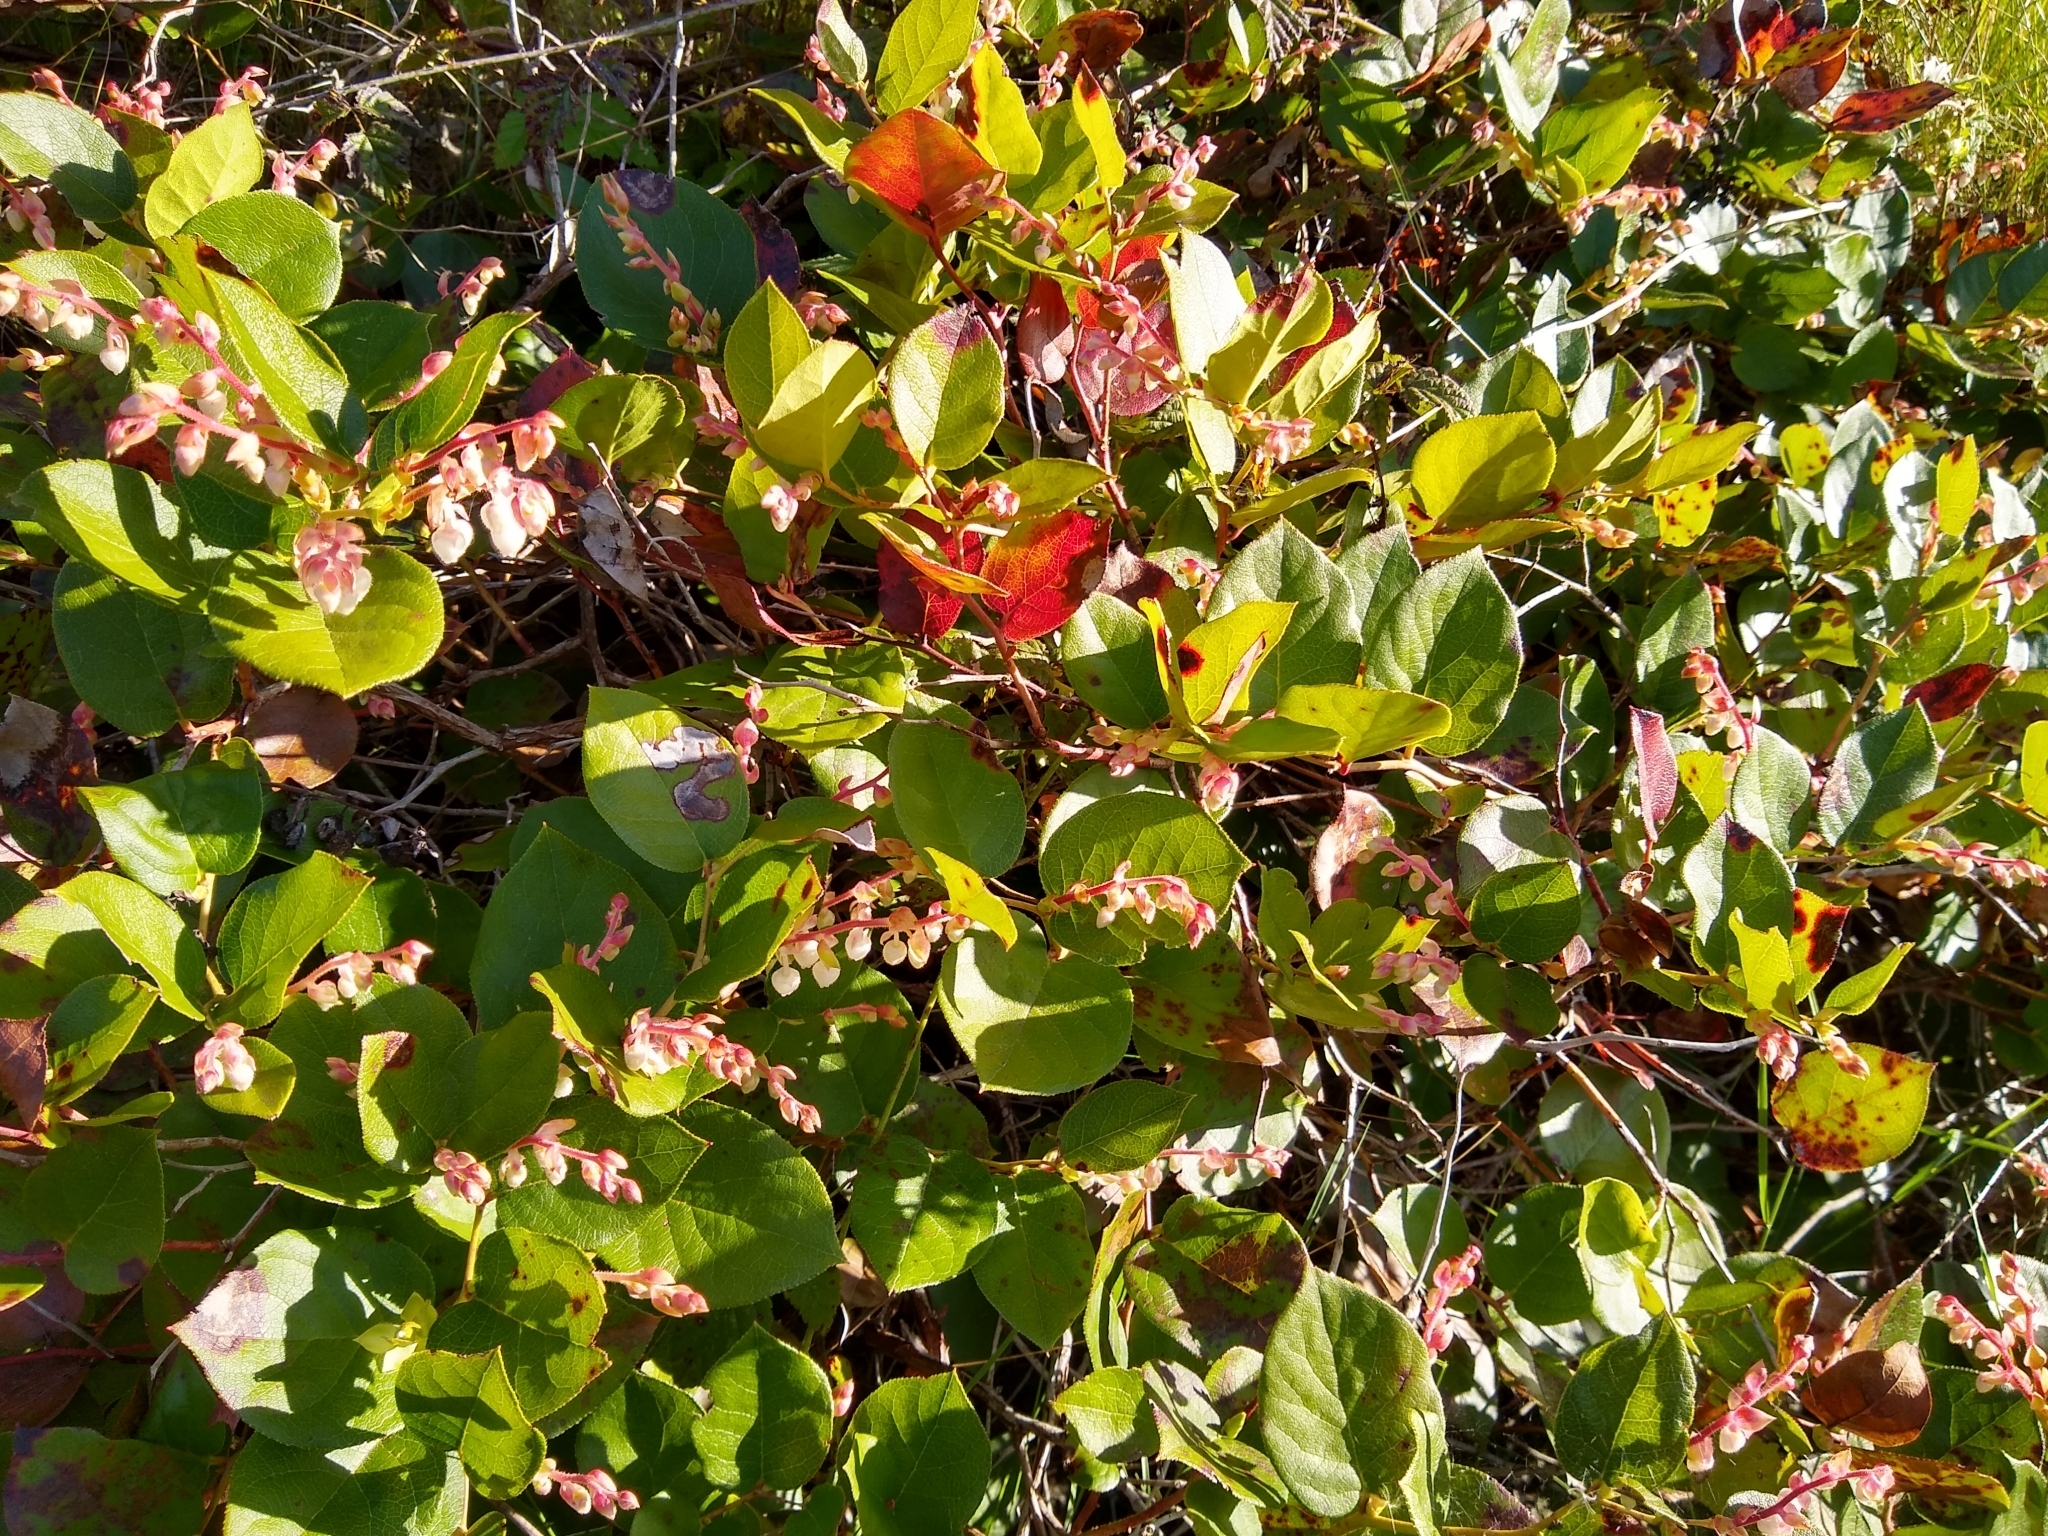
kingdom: Plantae
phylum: Tracheophyta
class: Magnoliopsida
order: Ericales
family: Ericaceae
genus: Gaultheria
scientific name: Gaultheria shallon
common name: Shallon
